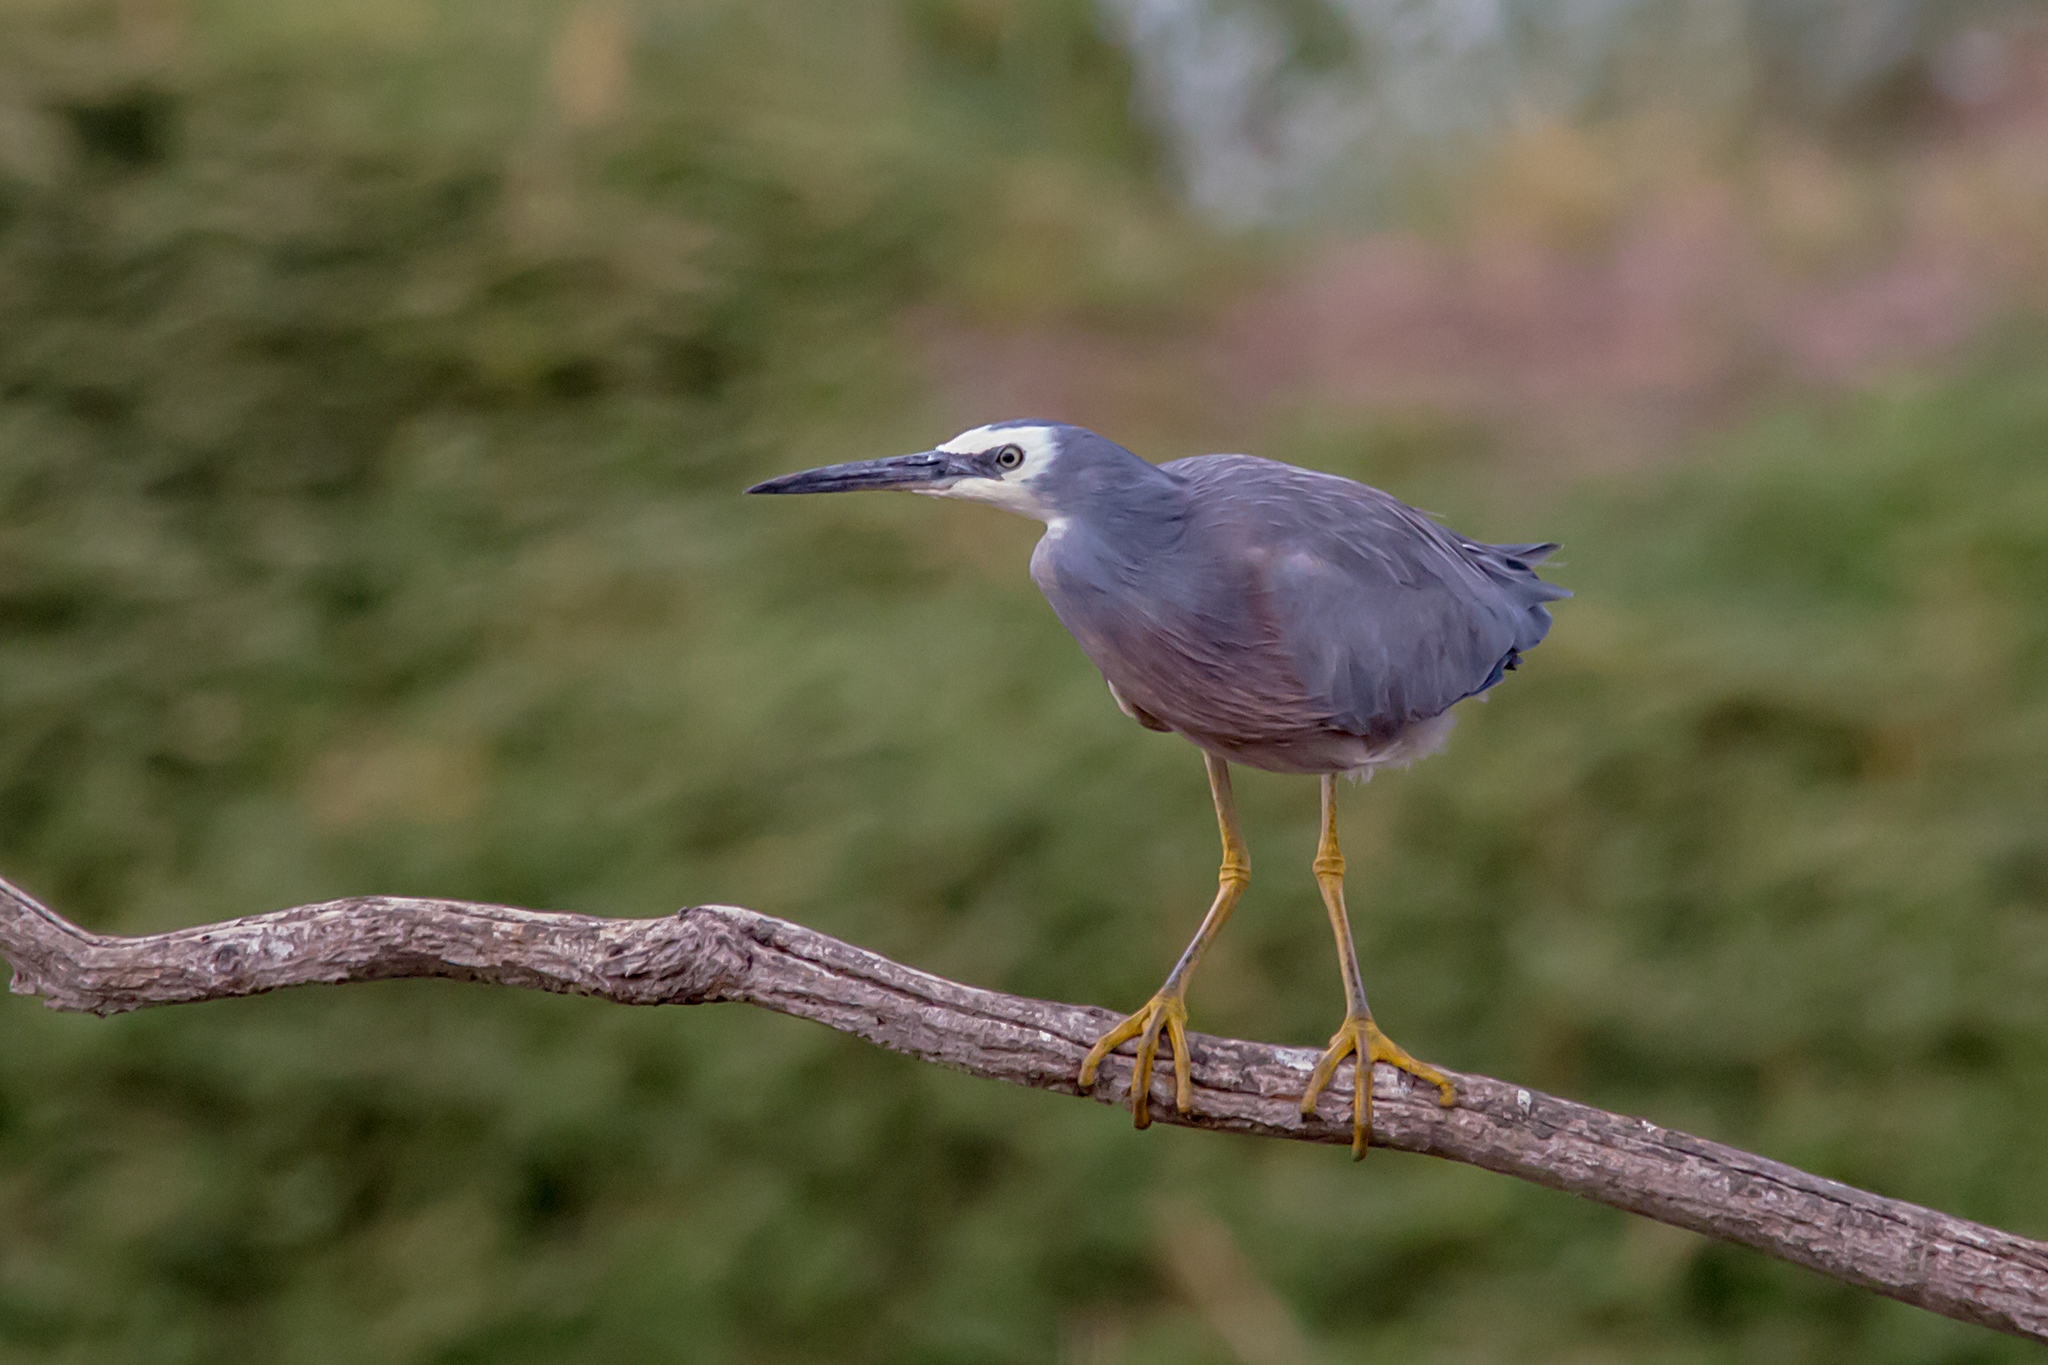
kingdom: Animalia
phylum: Chordata
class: Aves
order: Pelecaniformes
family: Ardeidae
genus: Egretta
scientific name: Egretta novaehollandiae
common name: White-faced heron
